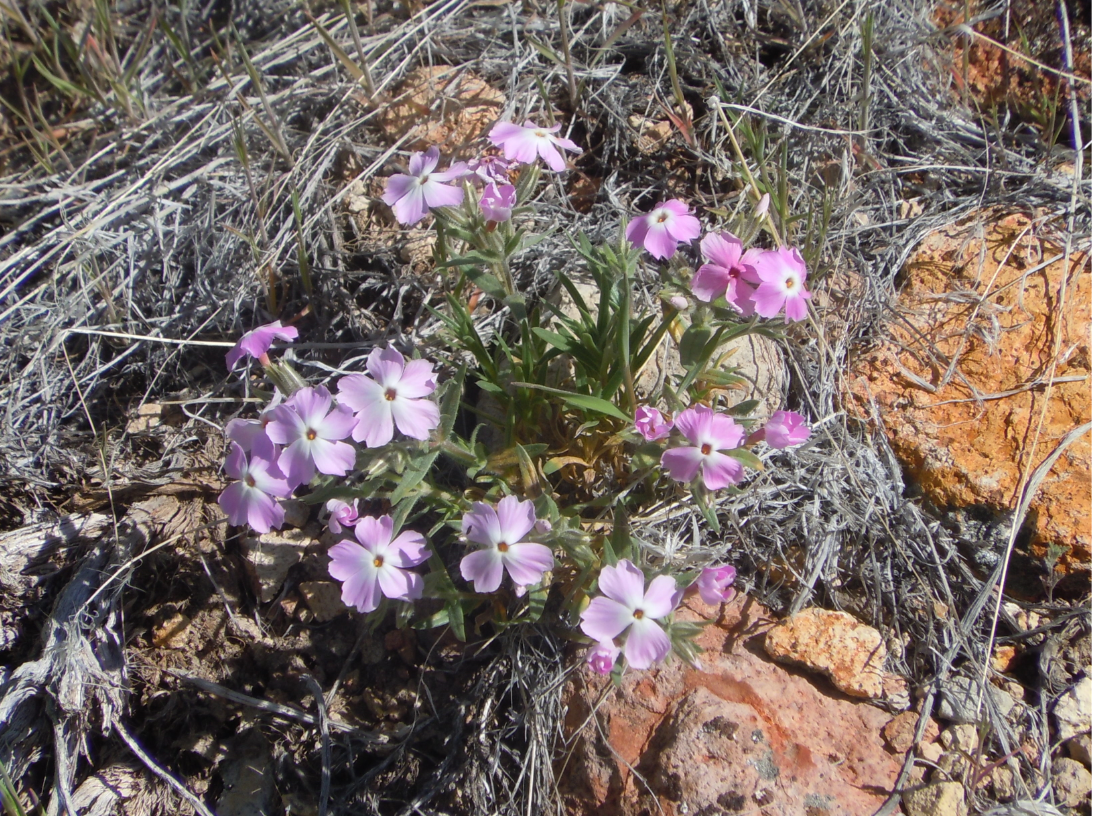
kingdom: Plantae
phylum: Tracheophyta
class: Magnoliopsida
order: Ericales
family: Polemoniaceae
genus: Phlox
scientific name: Phlox longifolia
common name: Longleaf phlox
